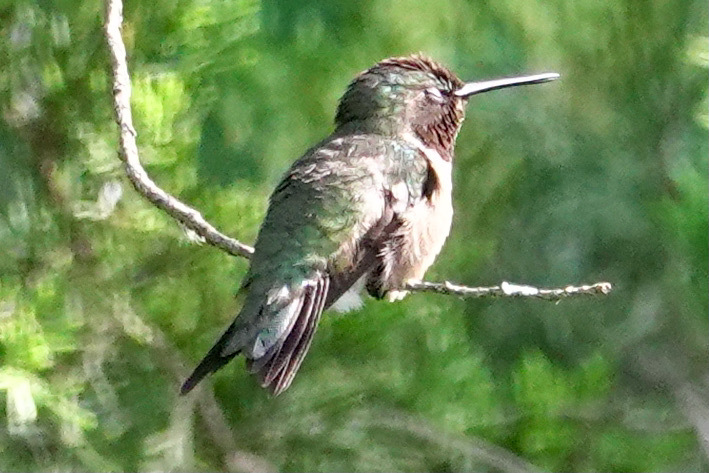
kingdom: Animalia
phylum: Chordata
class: Aves
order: Apodiformes
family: Trochilidae
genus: Archilochus
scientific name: Archilochus colubris
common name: Ruby-throated hummingbird
